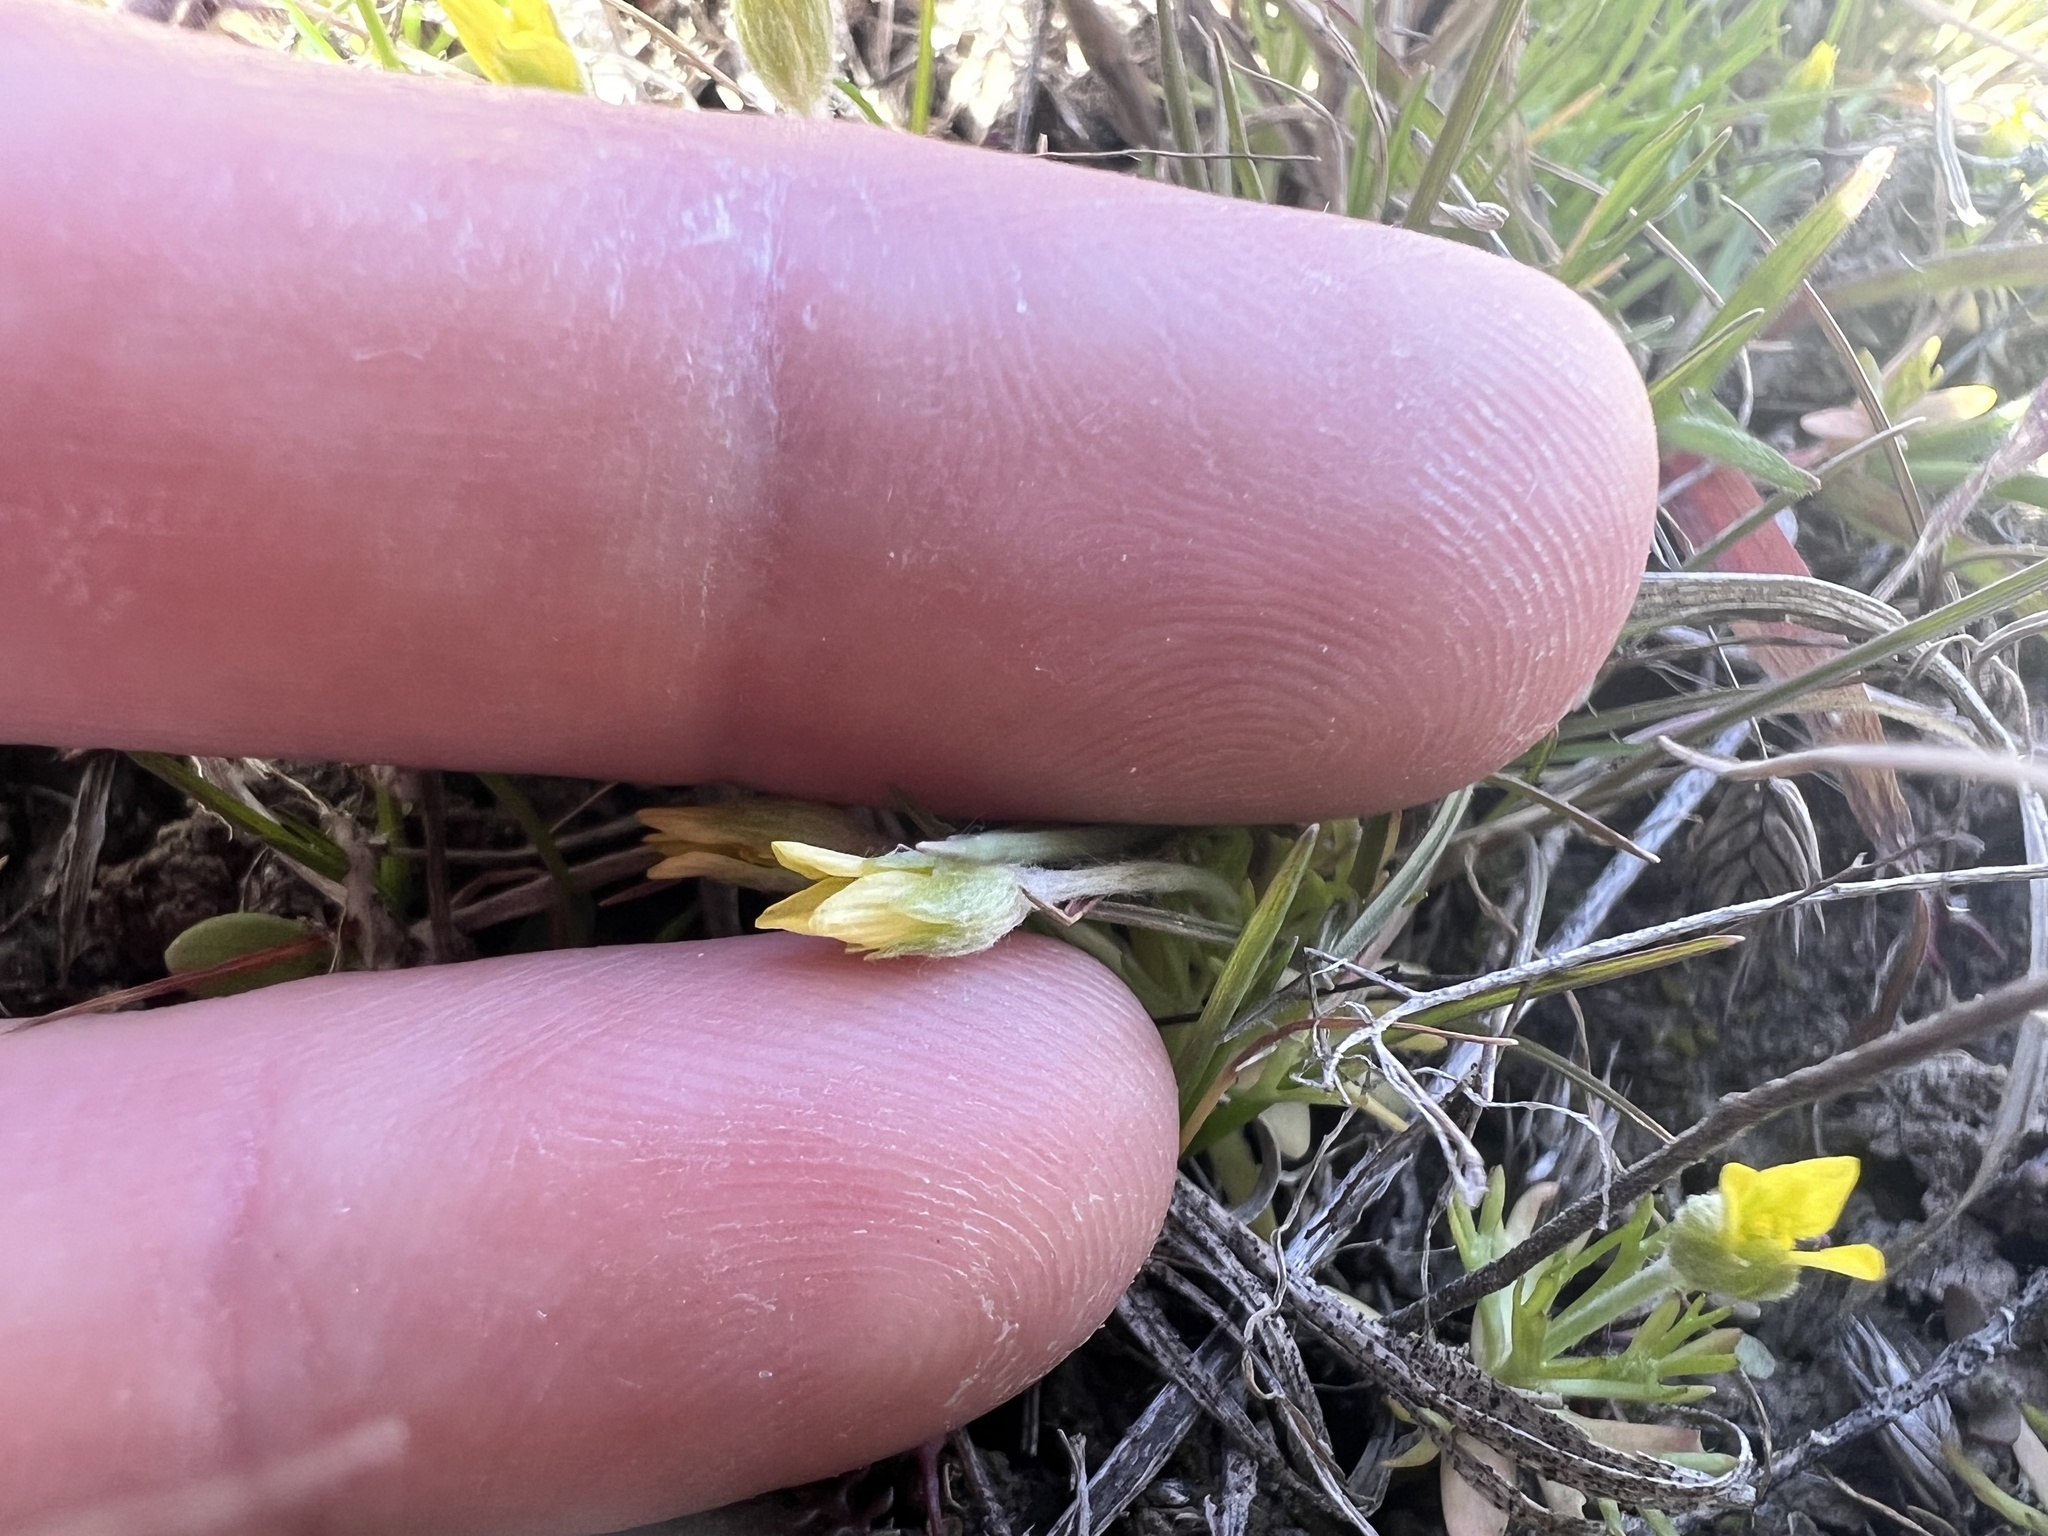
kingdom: Plantae
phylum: Tracheophyta
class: Magnoliopsida
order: Ranunculales
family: Ranunculaceae
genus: Ceratocephala
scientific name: Ceratocephala orthoceras
